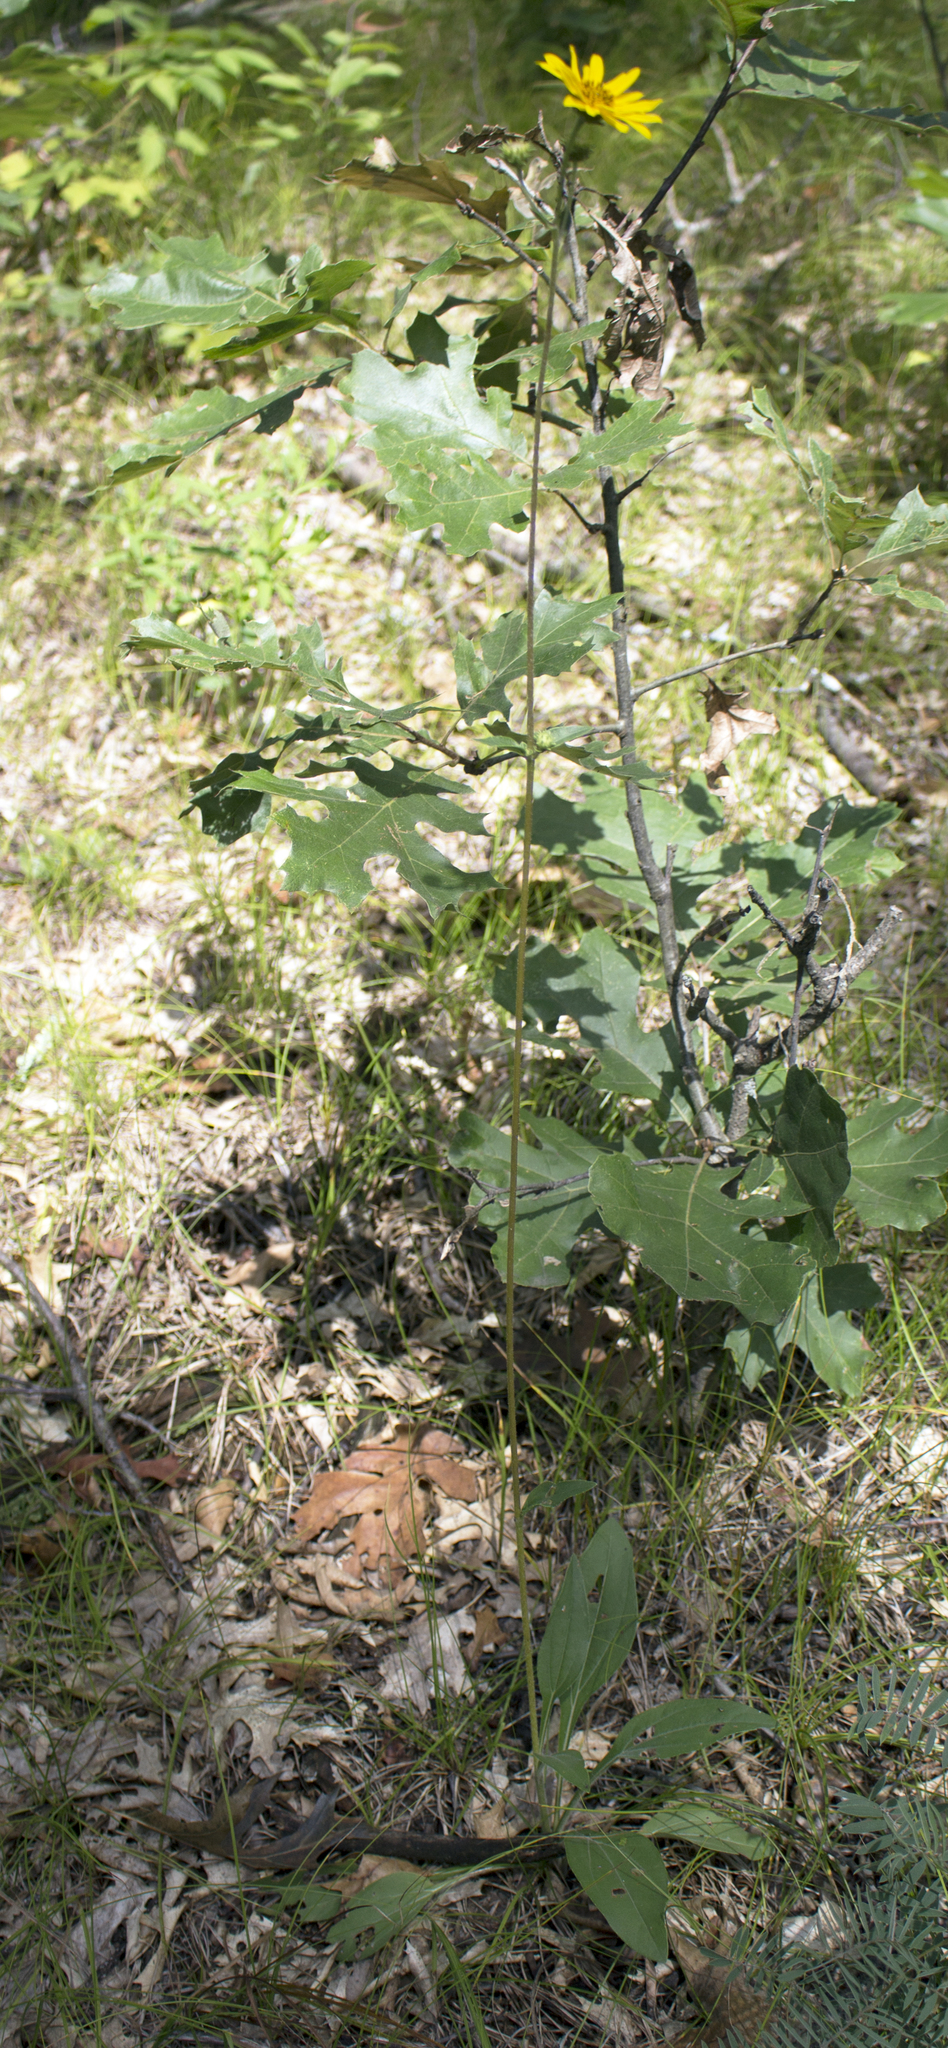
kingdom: Plantae
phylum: Tracheophyta
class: Magnoliopsida
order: Asterales
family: Asteraceae
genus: Helianthus
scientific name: Helianthus occidentalis
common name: Western sunflower
